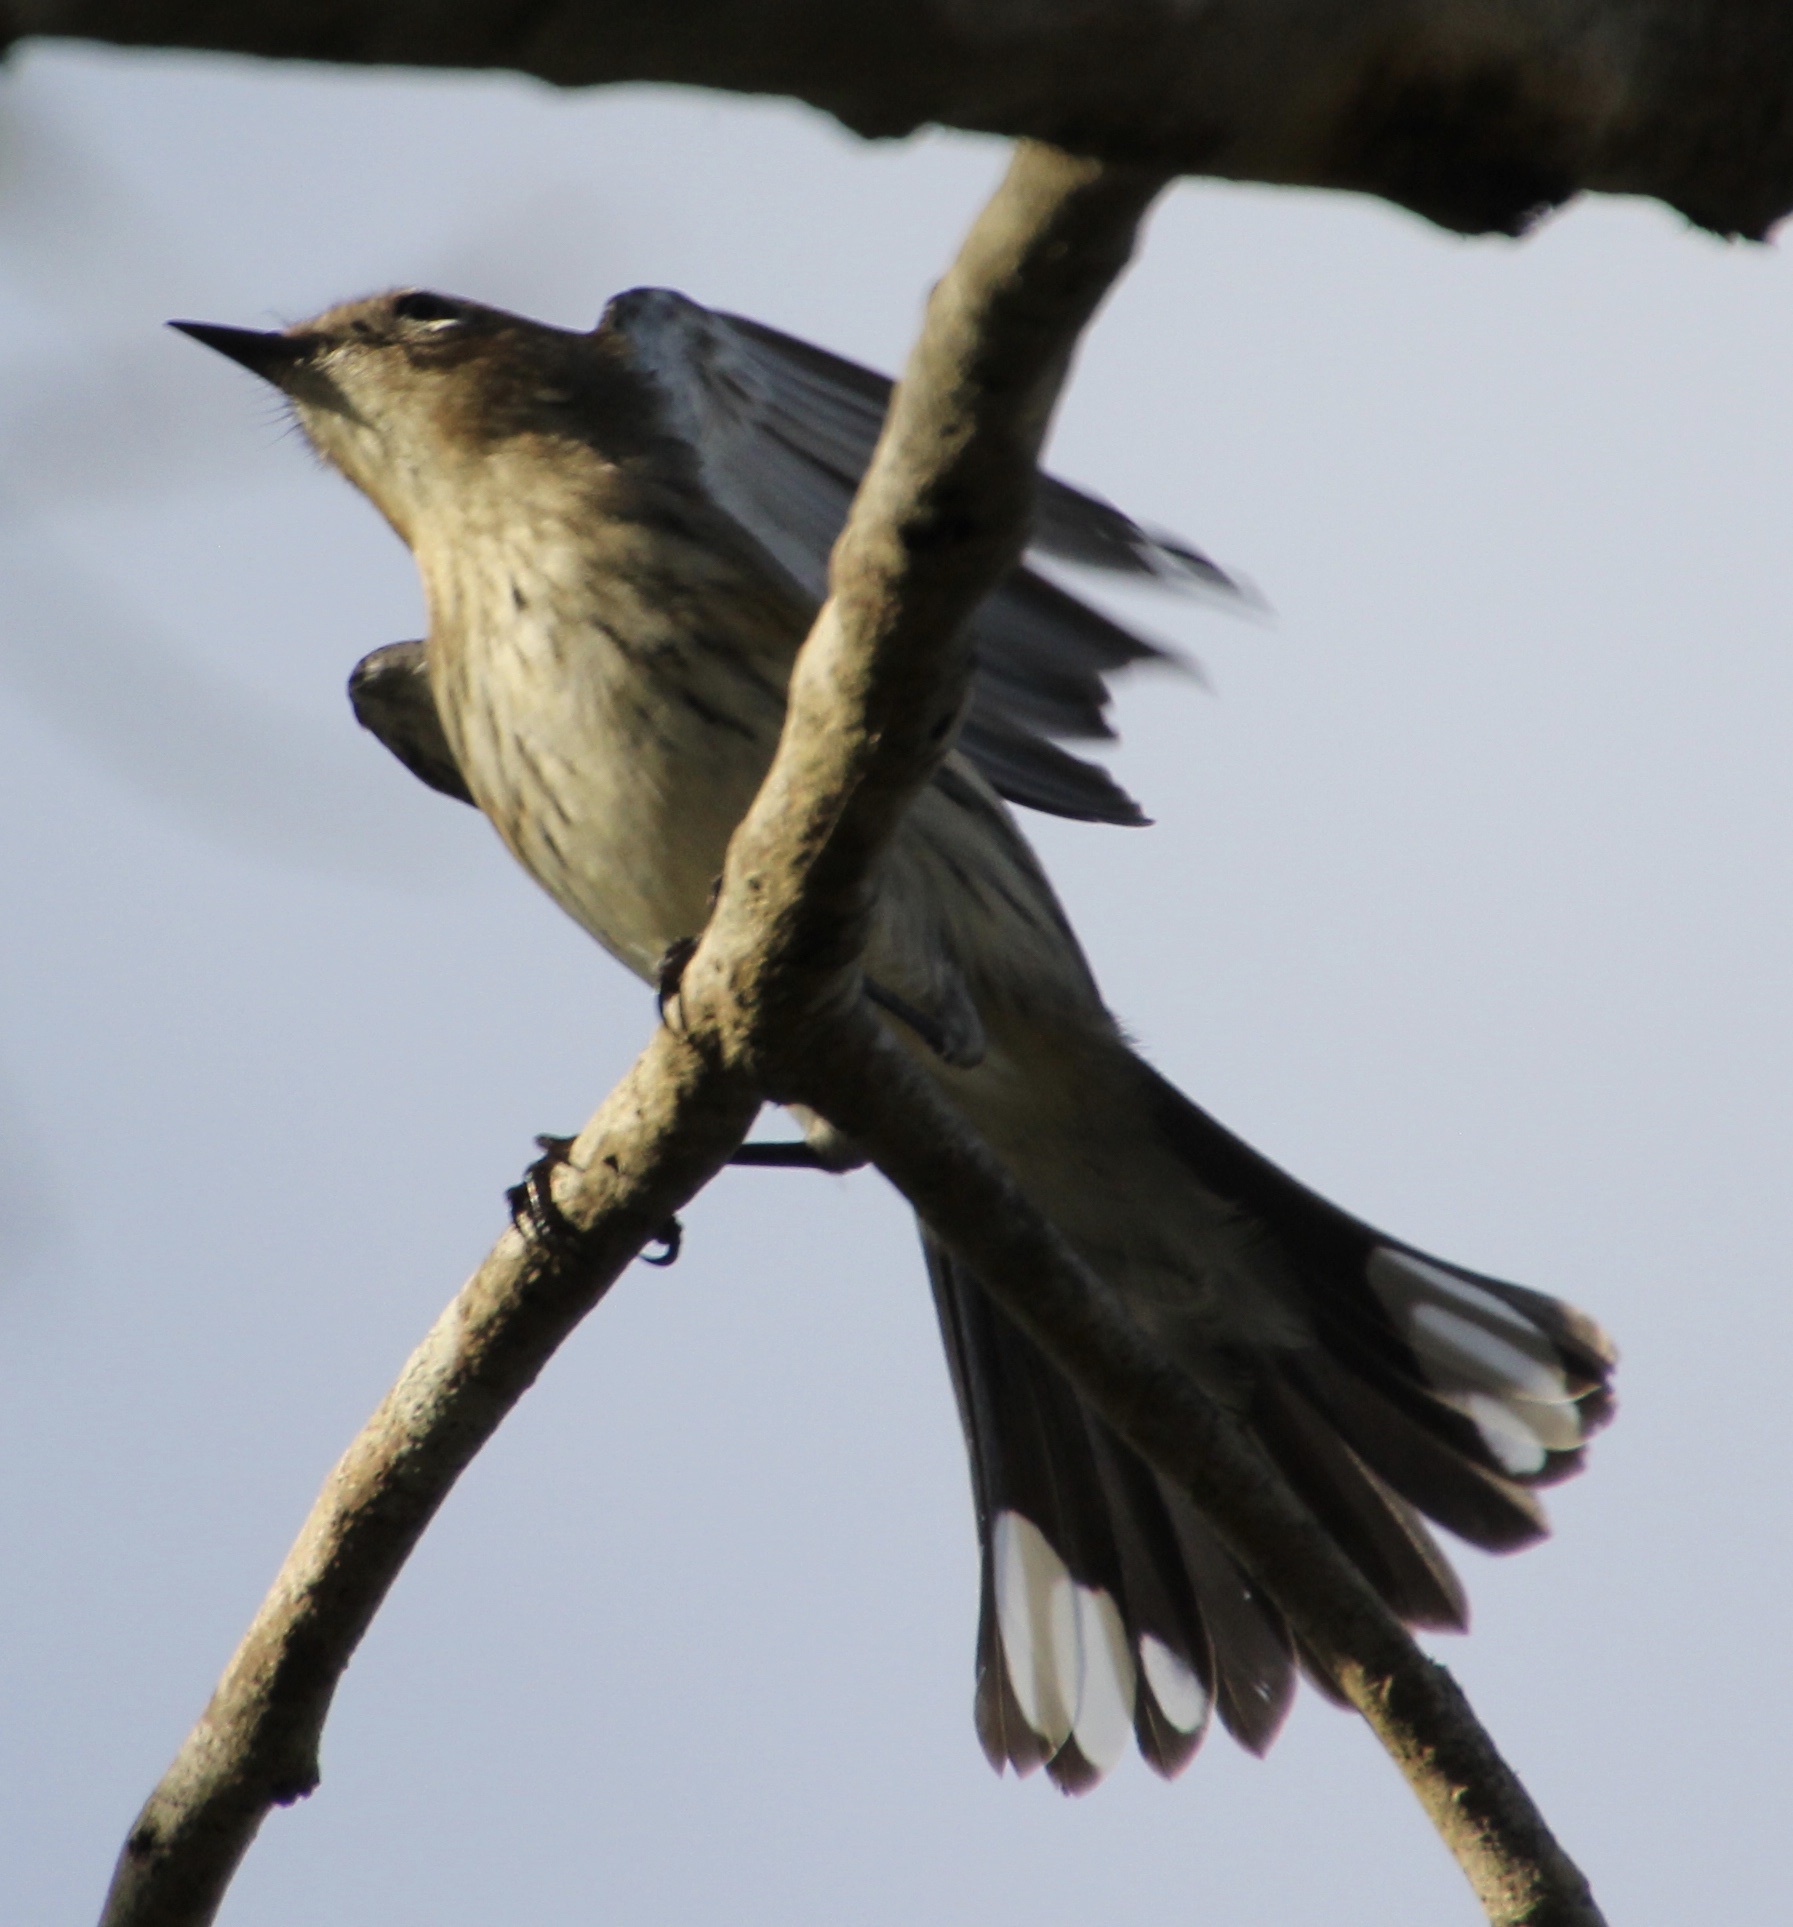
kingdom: Animalia
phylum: Chordata
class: Aves
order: Passeriformes
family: Parulidae
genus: Setophaga
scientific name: Setophaga coronata
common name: Myrtle warbler
